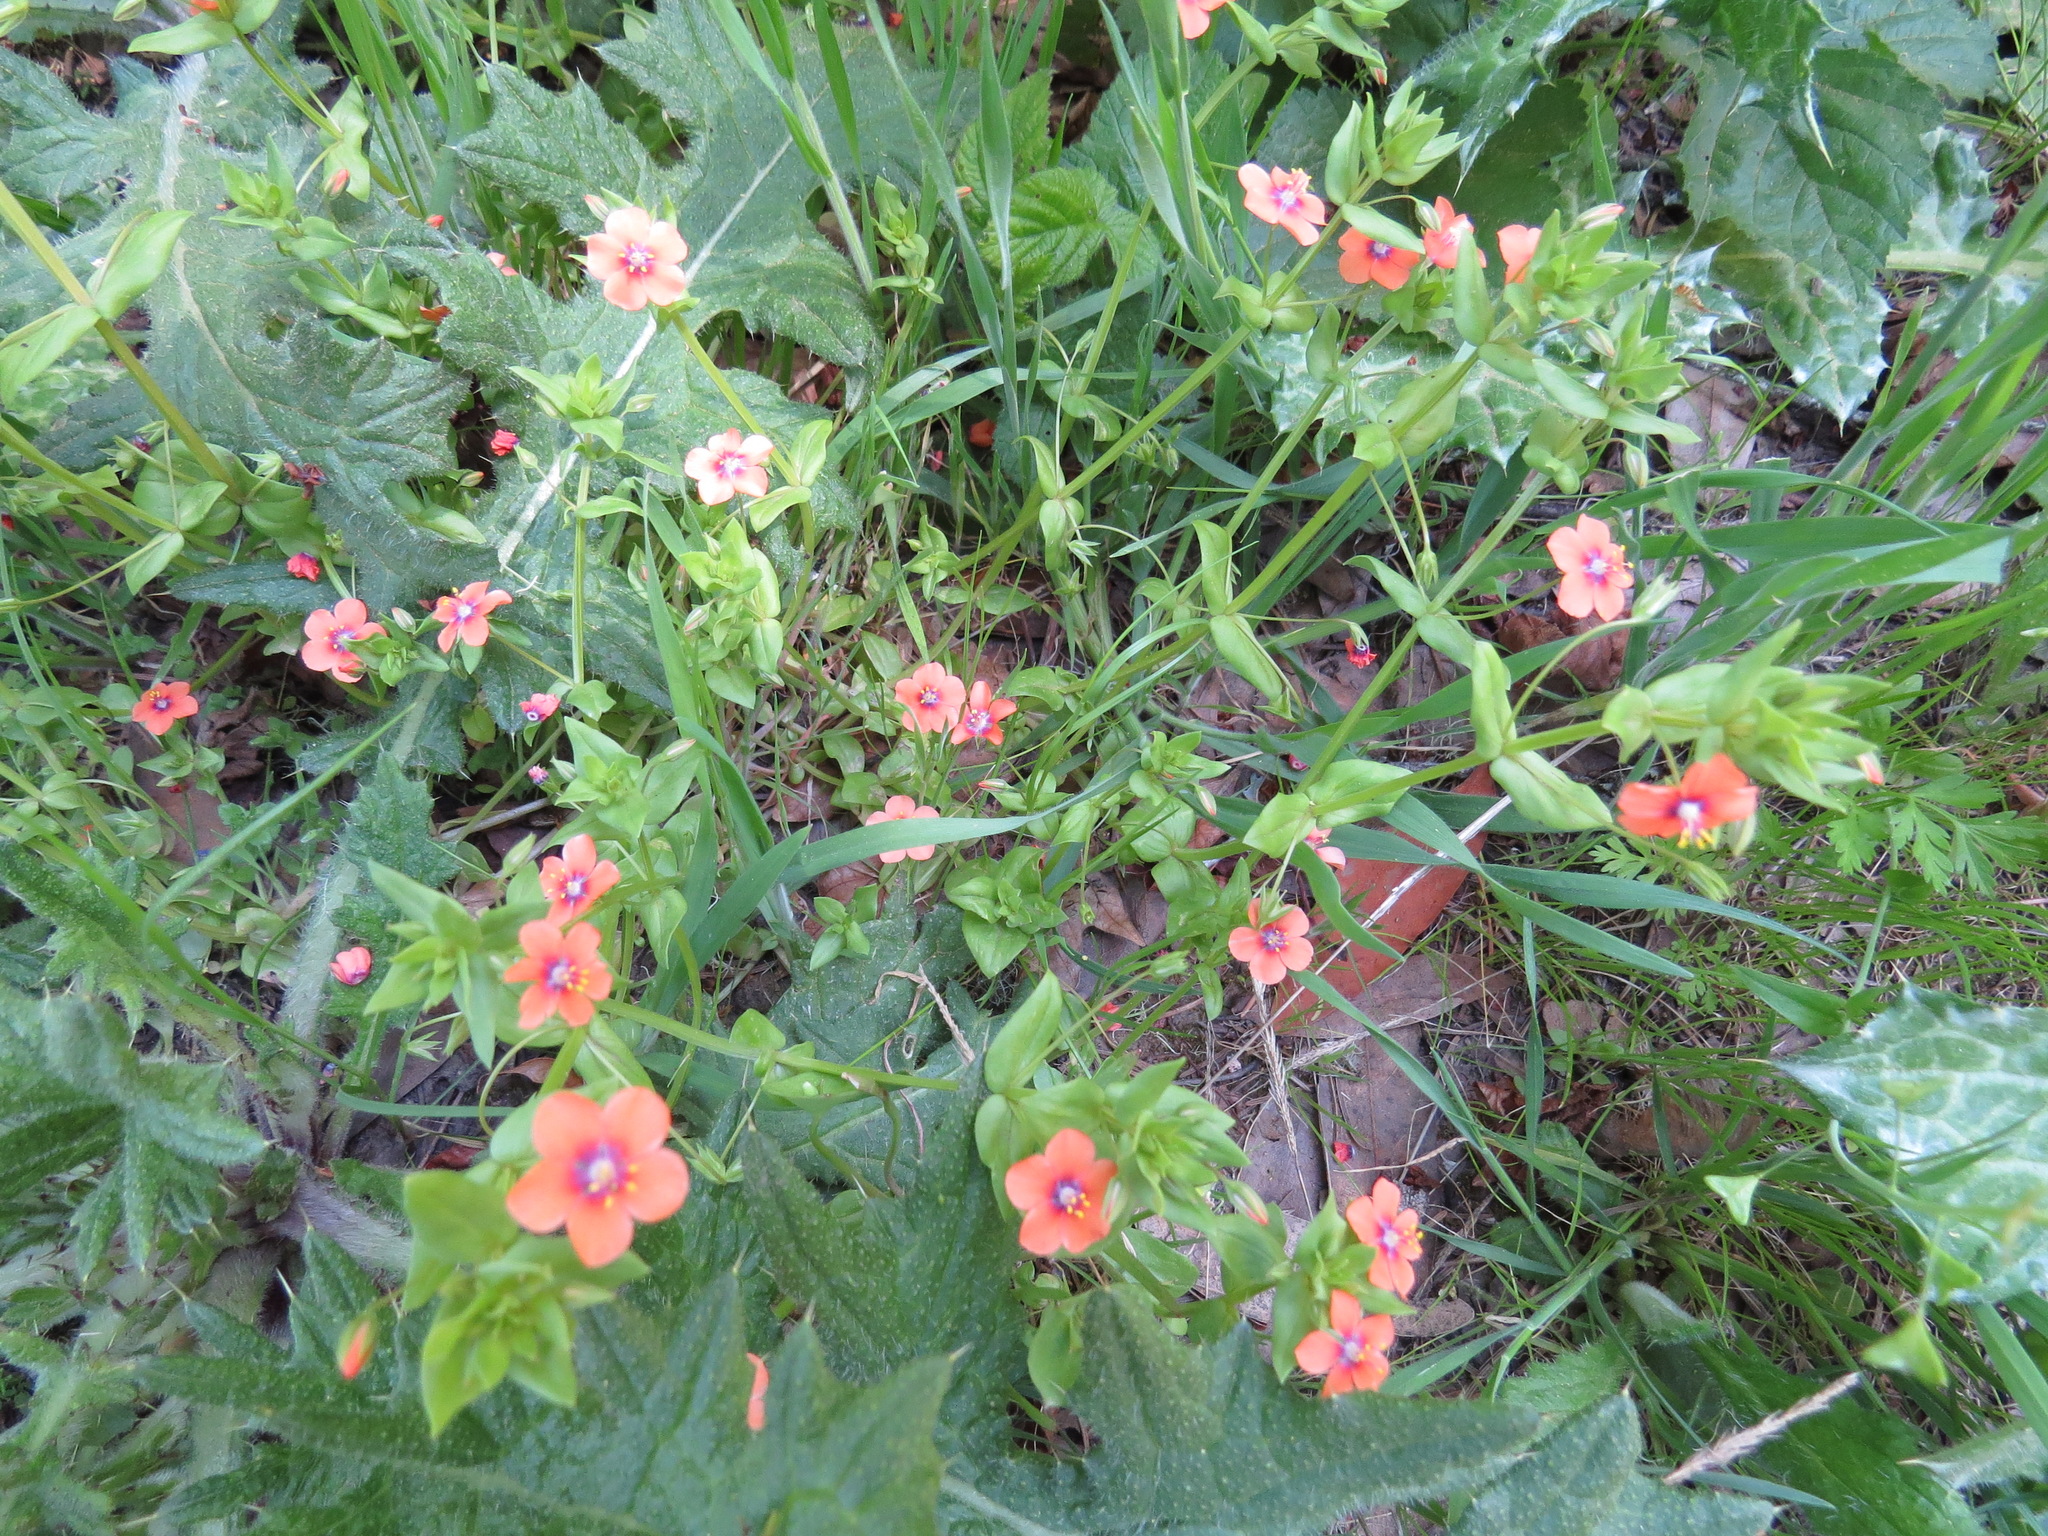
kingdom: Plantae
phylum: Tracheophyta
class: Magnoliopsida
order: Ericales
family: Primulaceae
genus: Lysimachia
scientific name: Lysimachia arvensis
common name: Scarlet pimpernel
